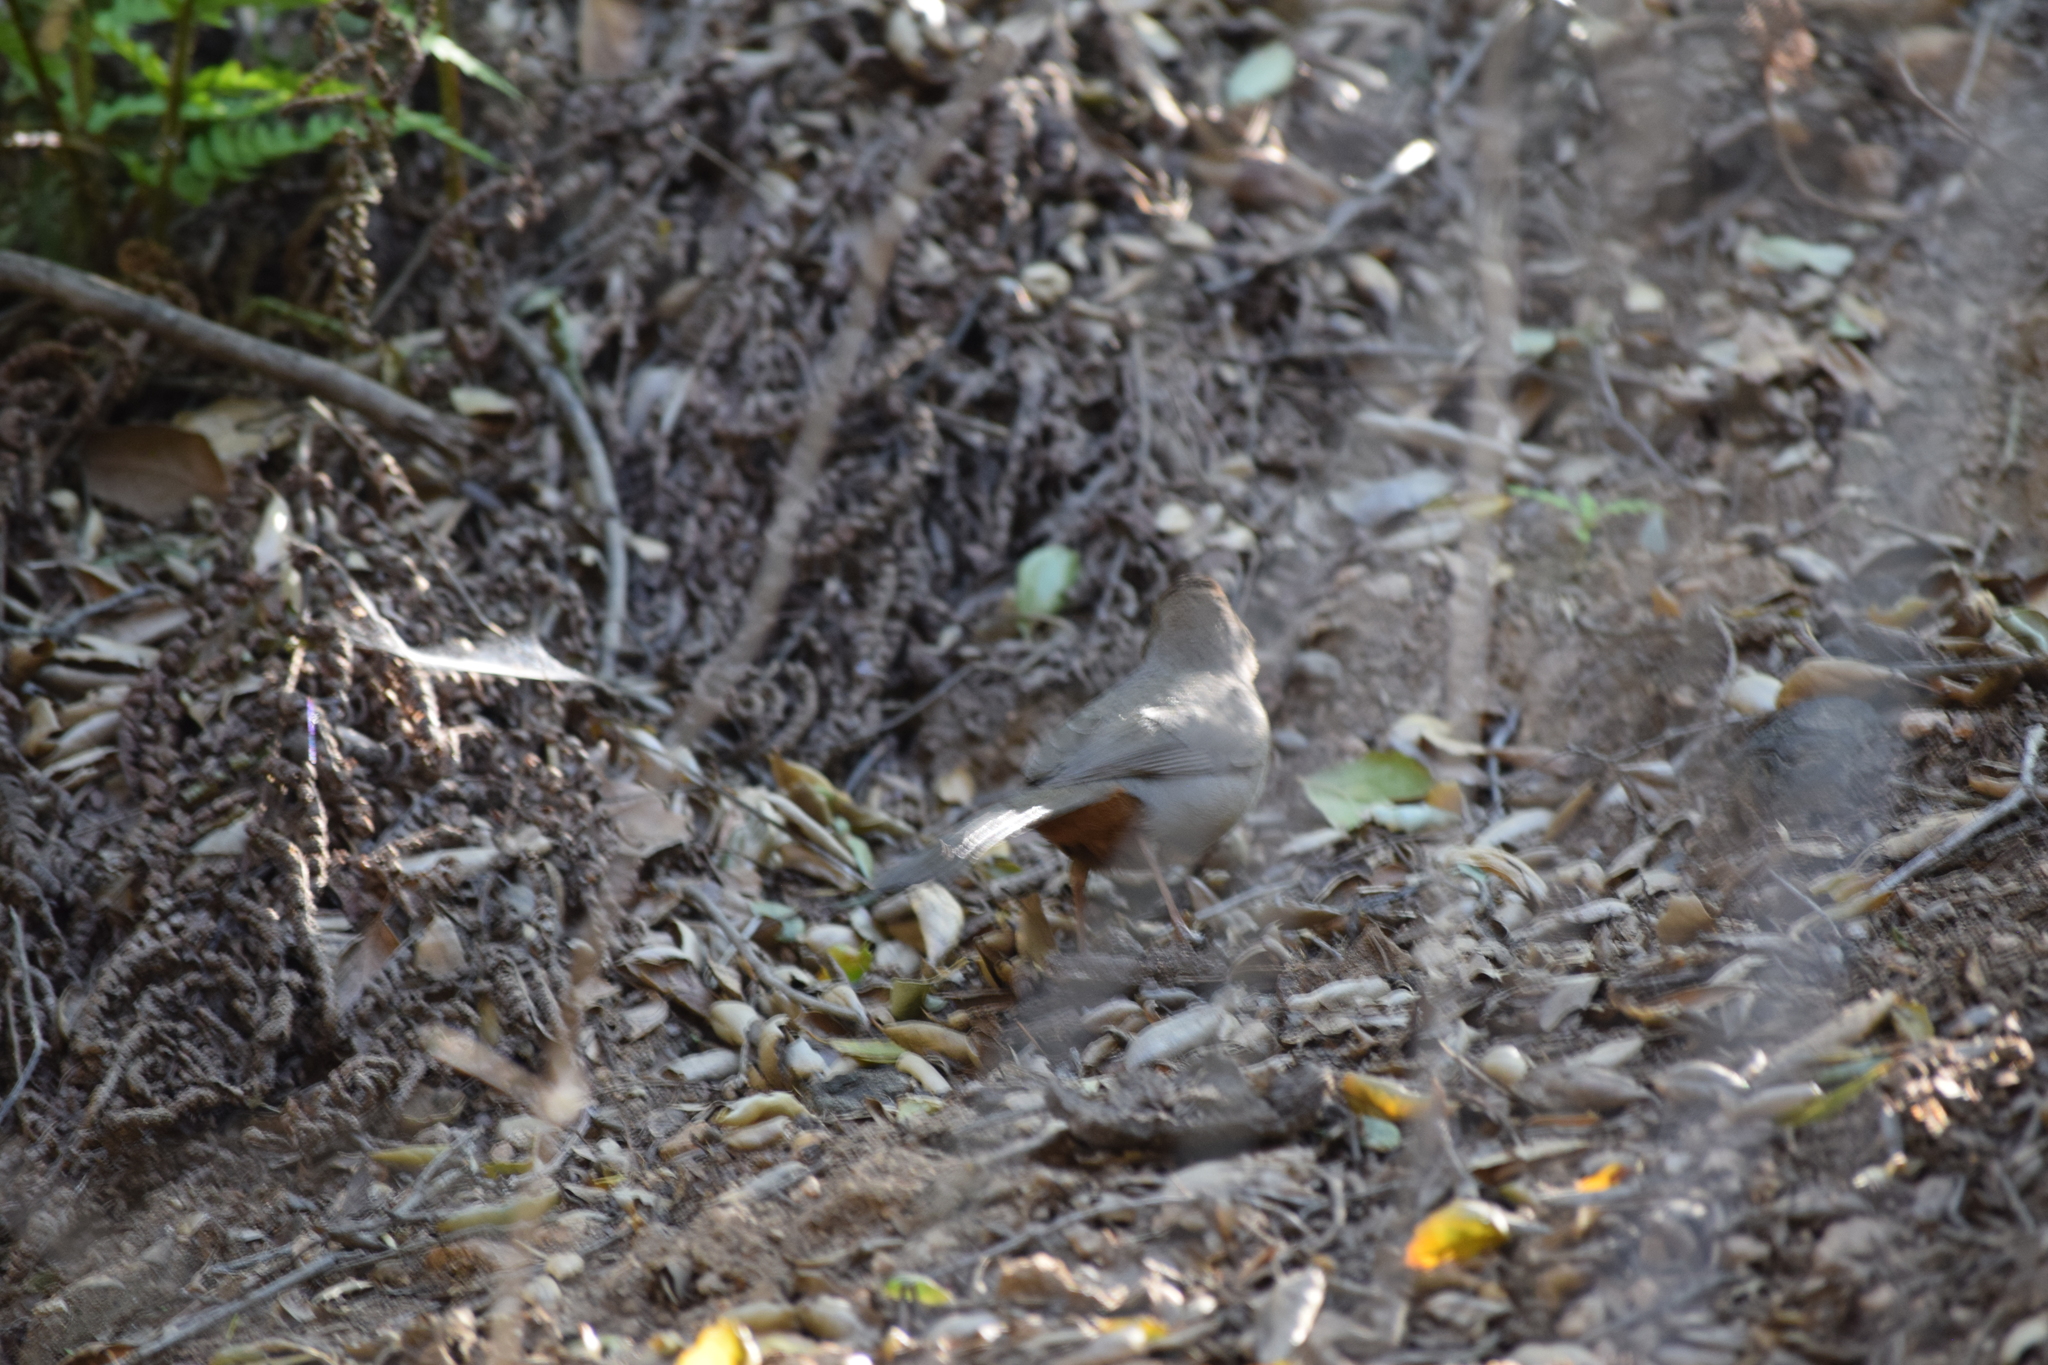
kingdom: Animalia
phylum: Chordata
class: Aves
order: Passeriformes
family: Passerellidae
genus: Melozone
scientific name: Melozone crissalis
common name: California towhee
